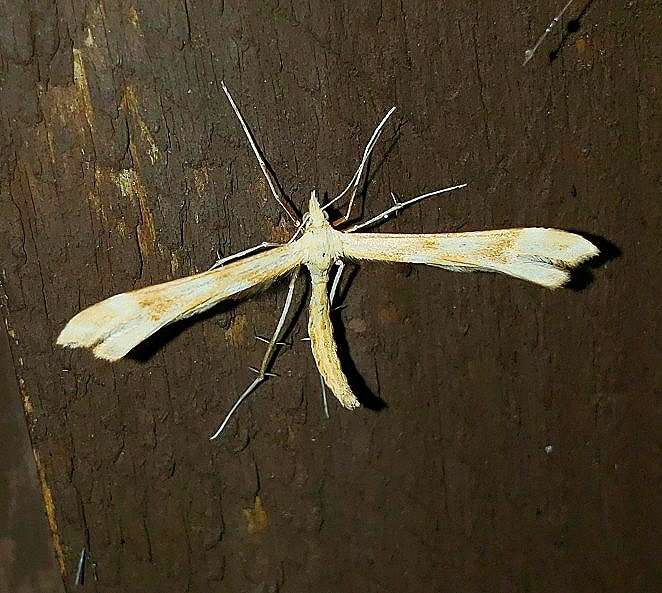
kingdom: Animalia
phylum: Arthropoda
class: Insecta
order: Lepidoptera
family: Pterophoridae
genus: Gillmeria
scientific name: Gillmeria pallidactyla
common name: Yarrow plume
